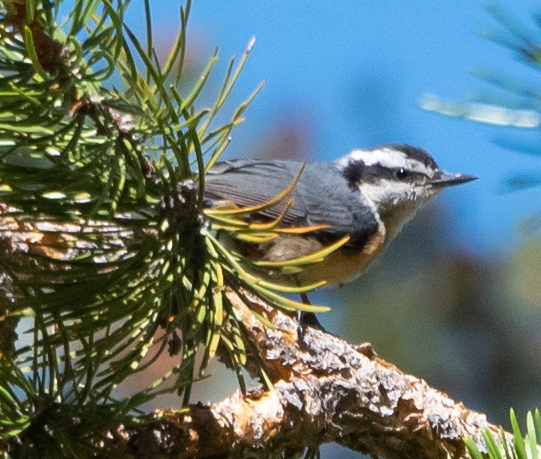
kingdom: Animalia
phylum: Chordata
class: Aves
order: Passeriformes
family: Sittidae
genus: Sitta
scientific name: Sitta canadensis
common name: Red-breasted nuthatch
